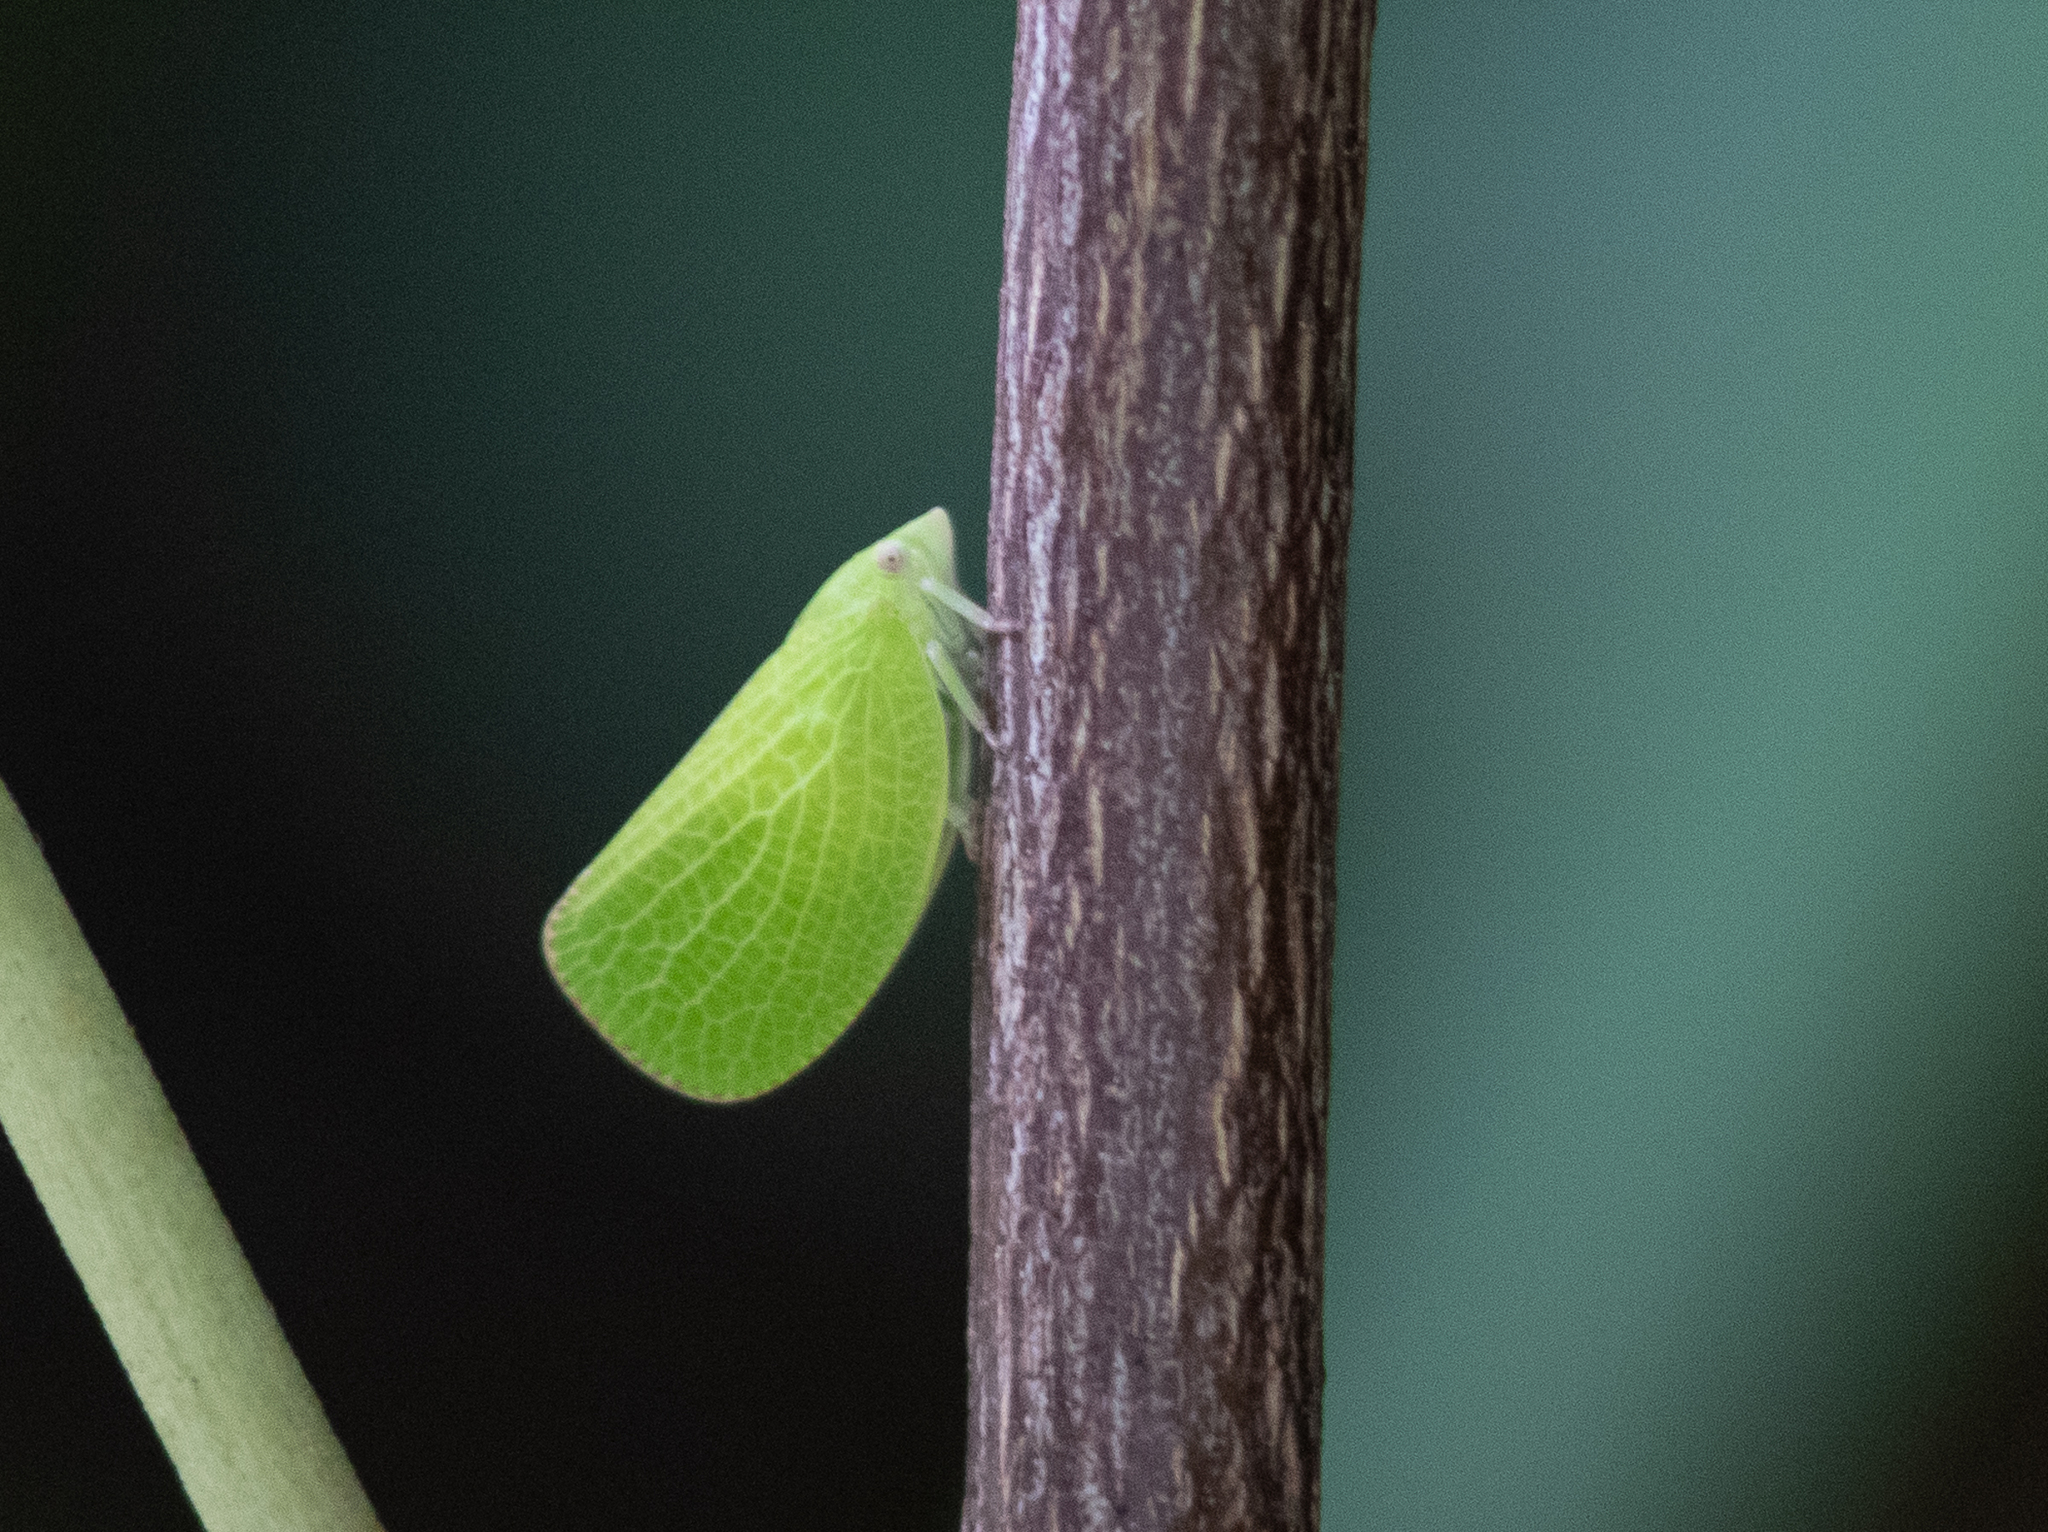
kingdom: Animalia
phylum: Arthropoda
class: Insecta
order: Hemiptera
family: Acanaloniidae
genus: Acanalonia
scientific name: Acanalonia conica
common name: Green cone-headed planthopper
